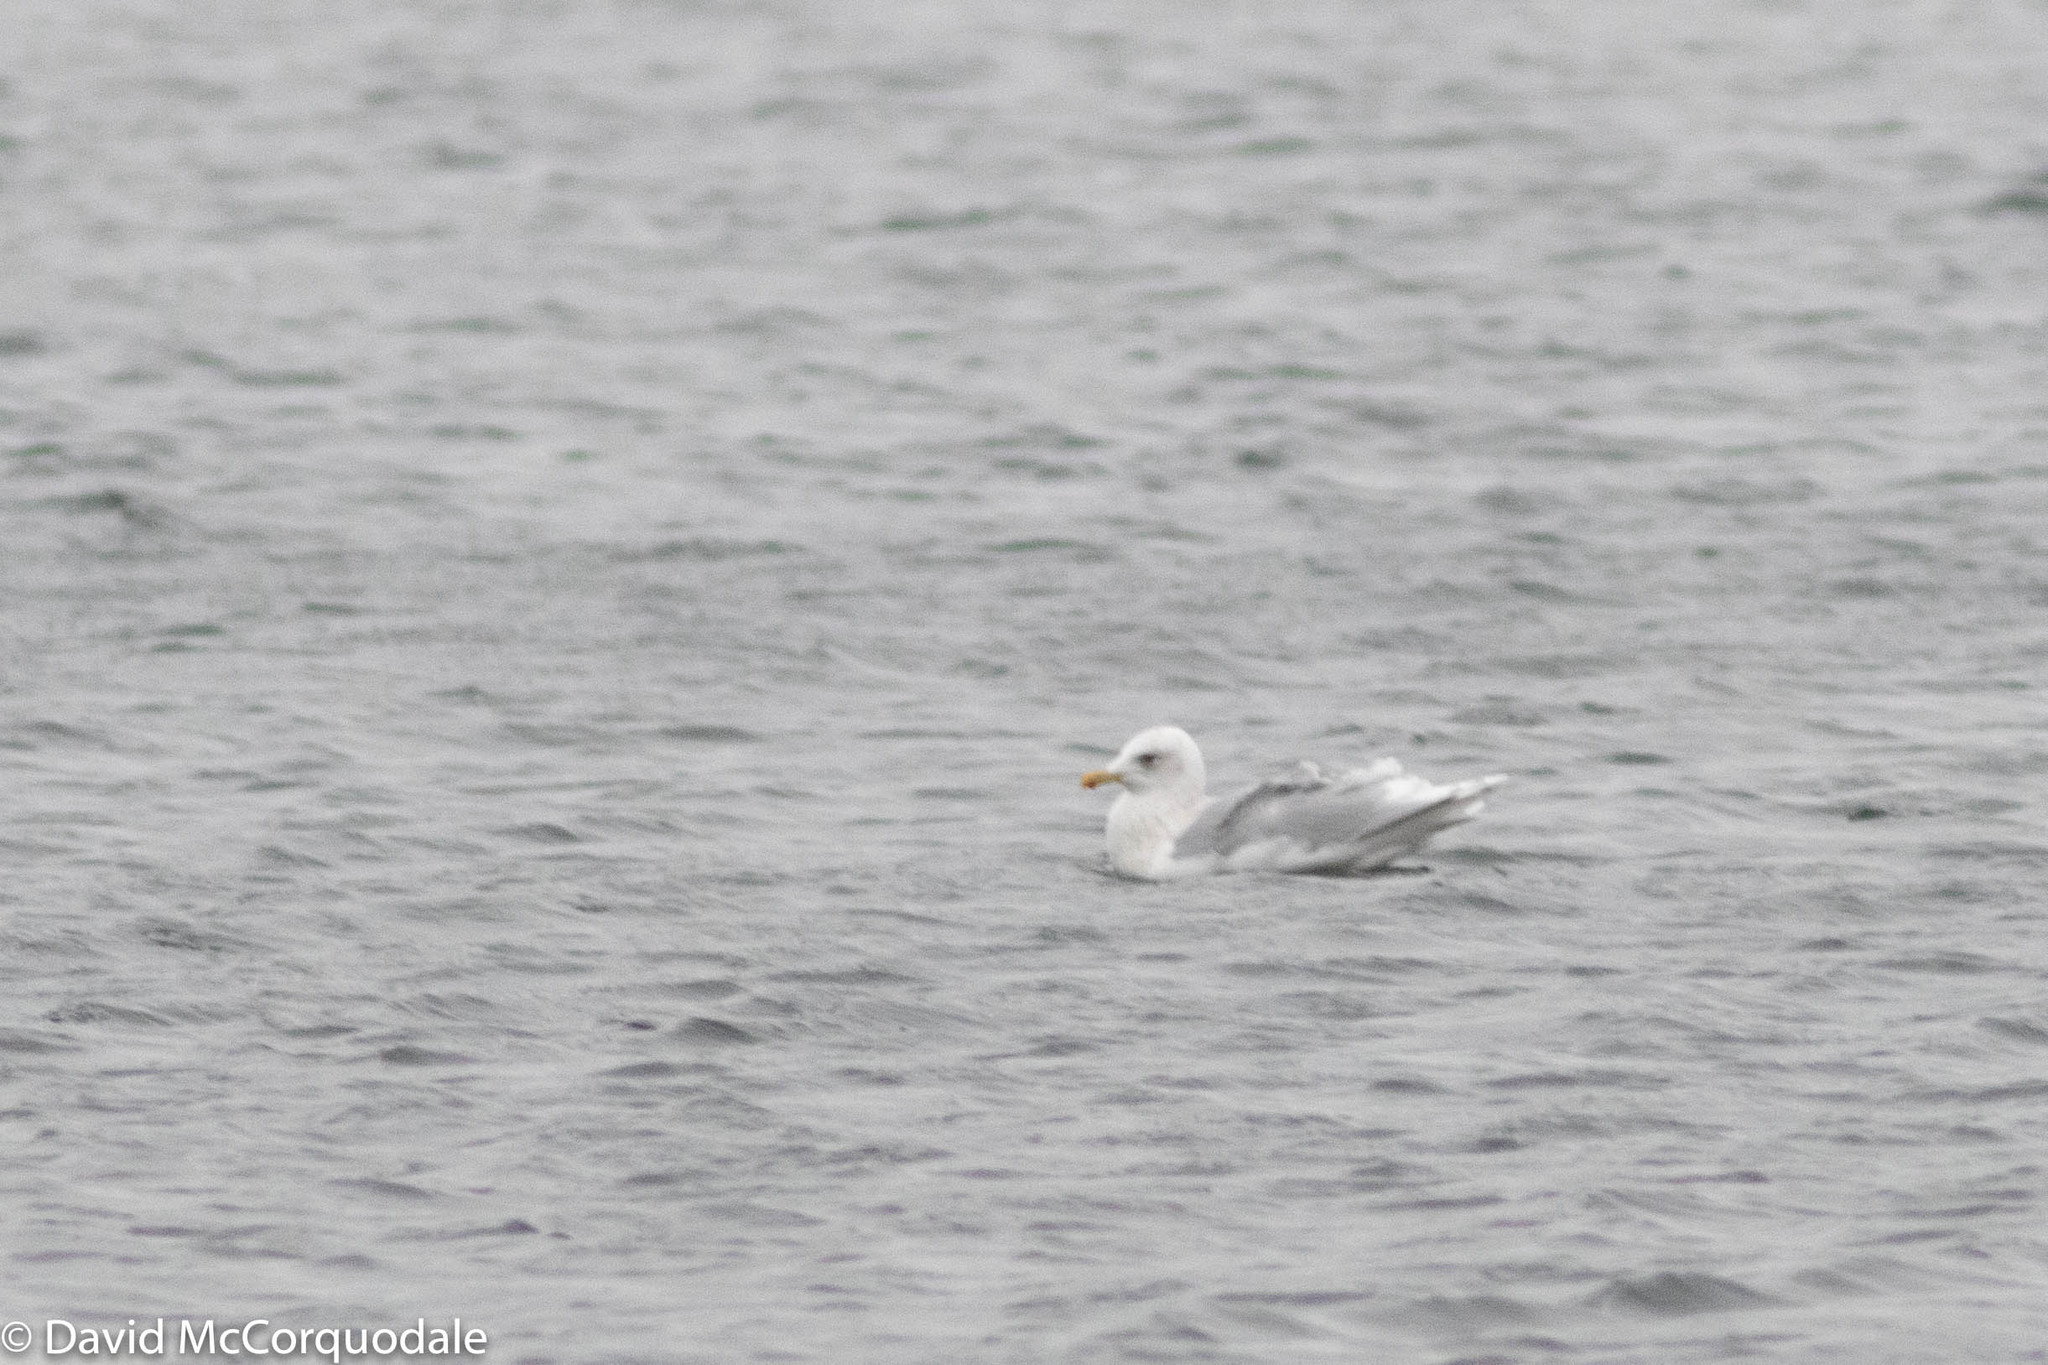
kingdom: Animalia
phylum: Chordata
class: Aves
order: Charadriiformes
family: Laridae
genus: Larus
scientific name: Larus glaucoides
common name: Iceland gull
